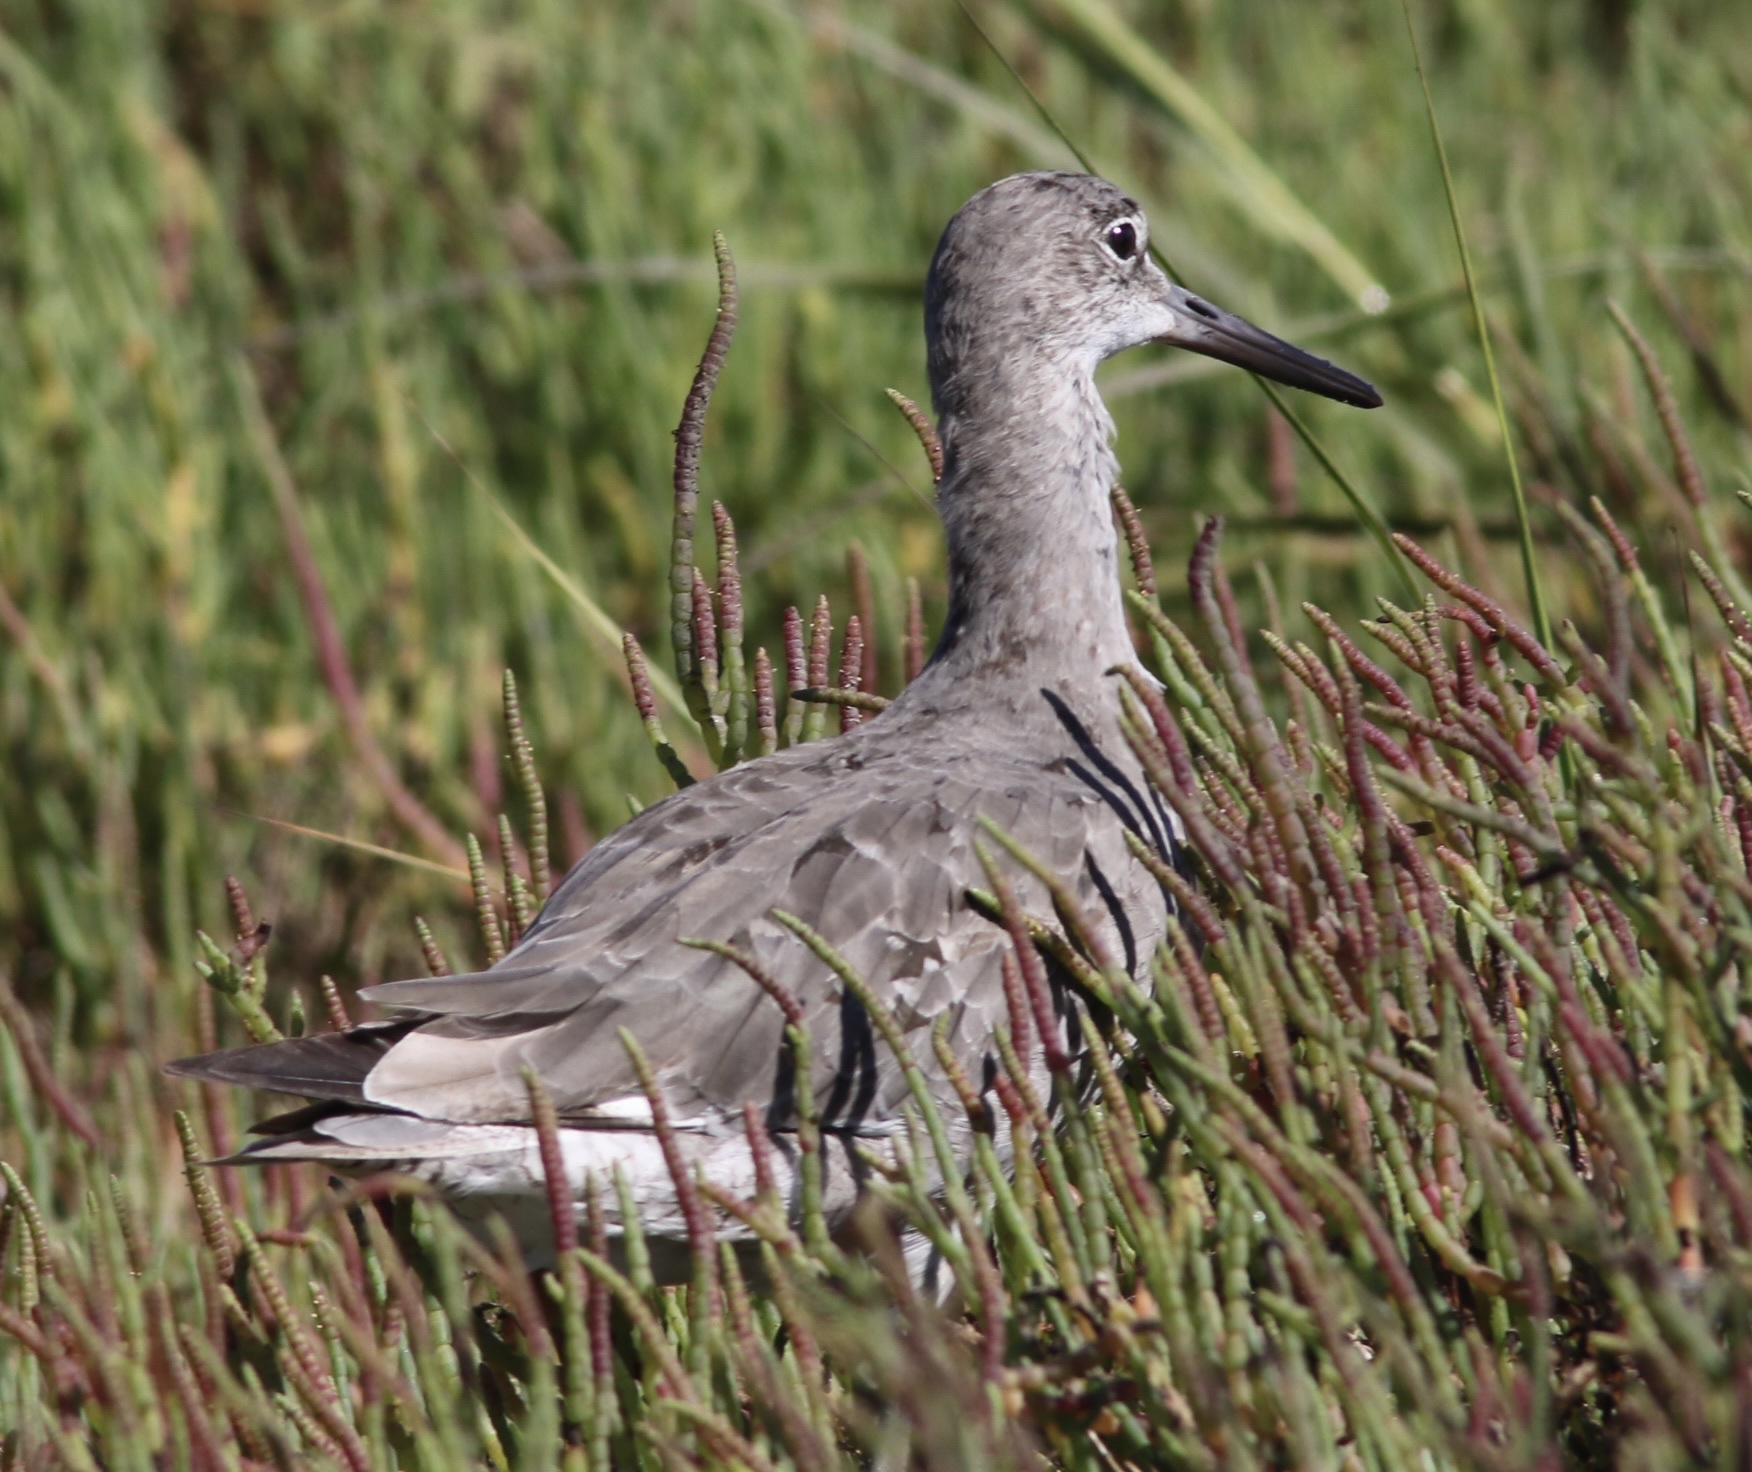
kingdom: Animalia
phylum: Chordata
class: Aves
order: Charadriiformes
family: Scolopacidae
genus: Tringa
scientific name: Tringa semipalmata
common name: Willet
